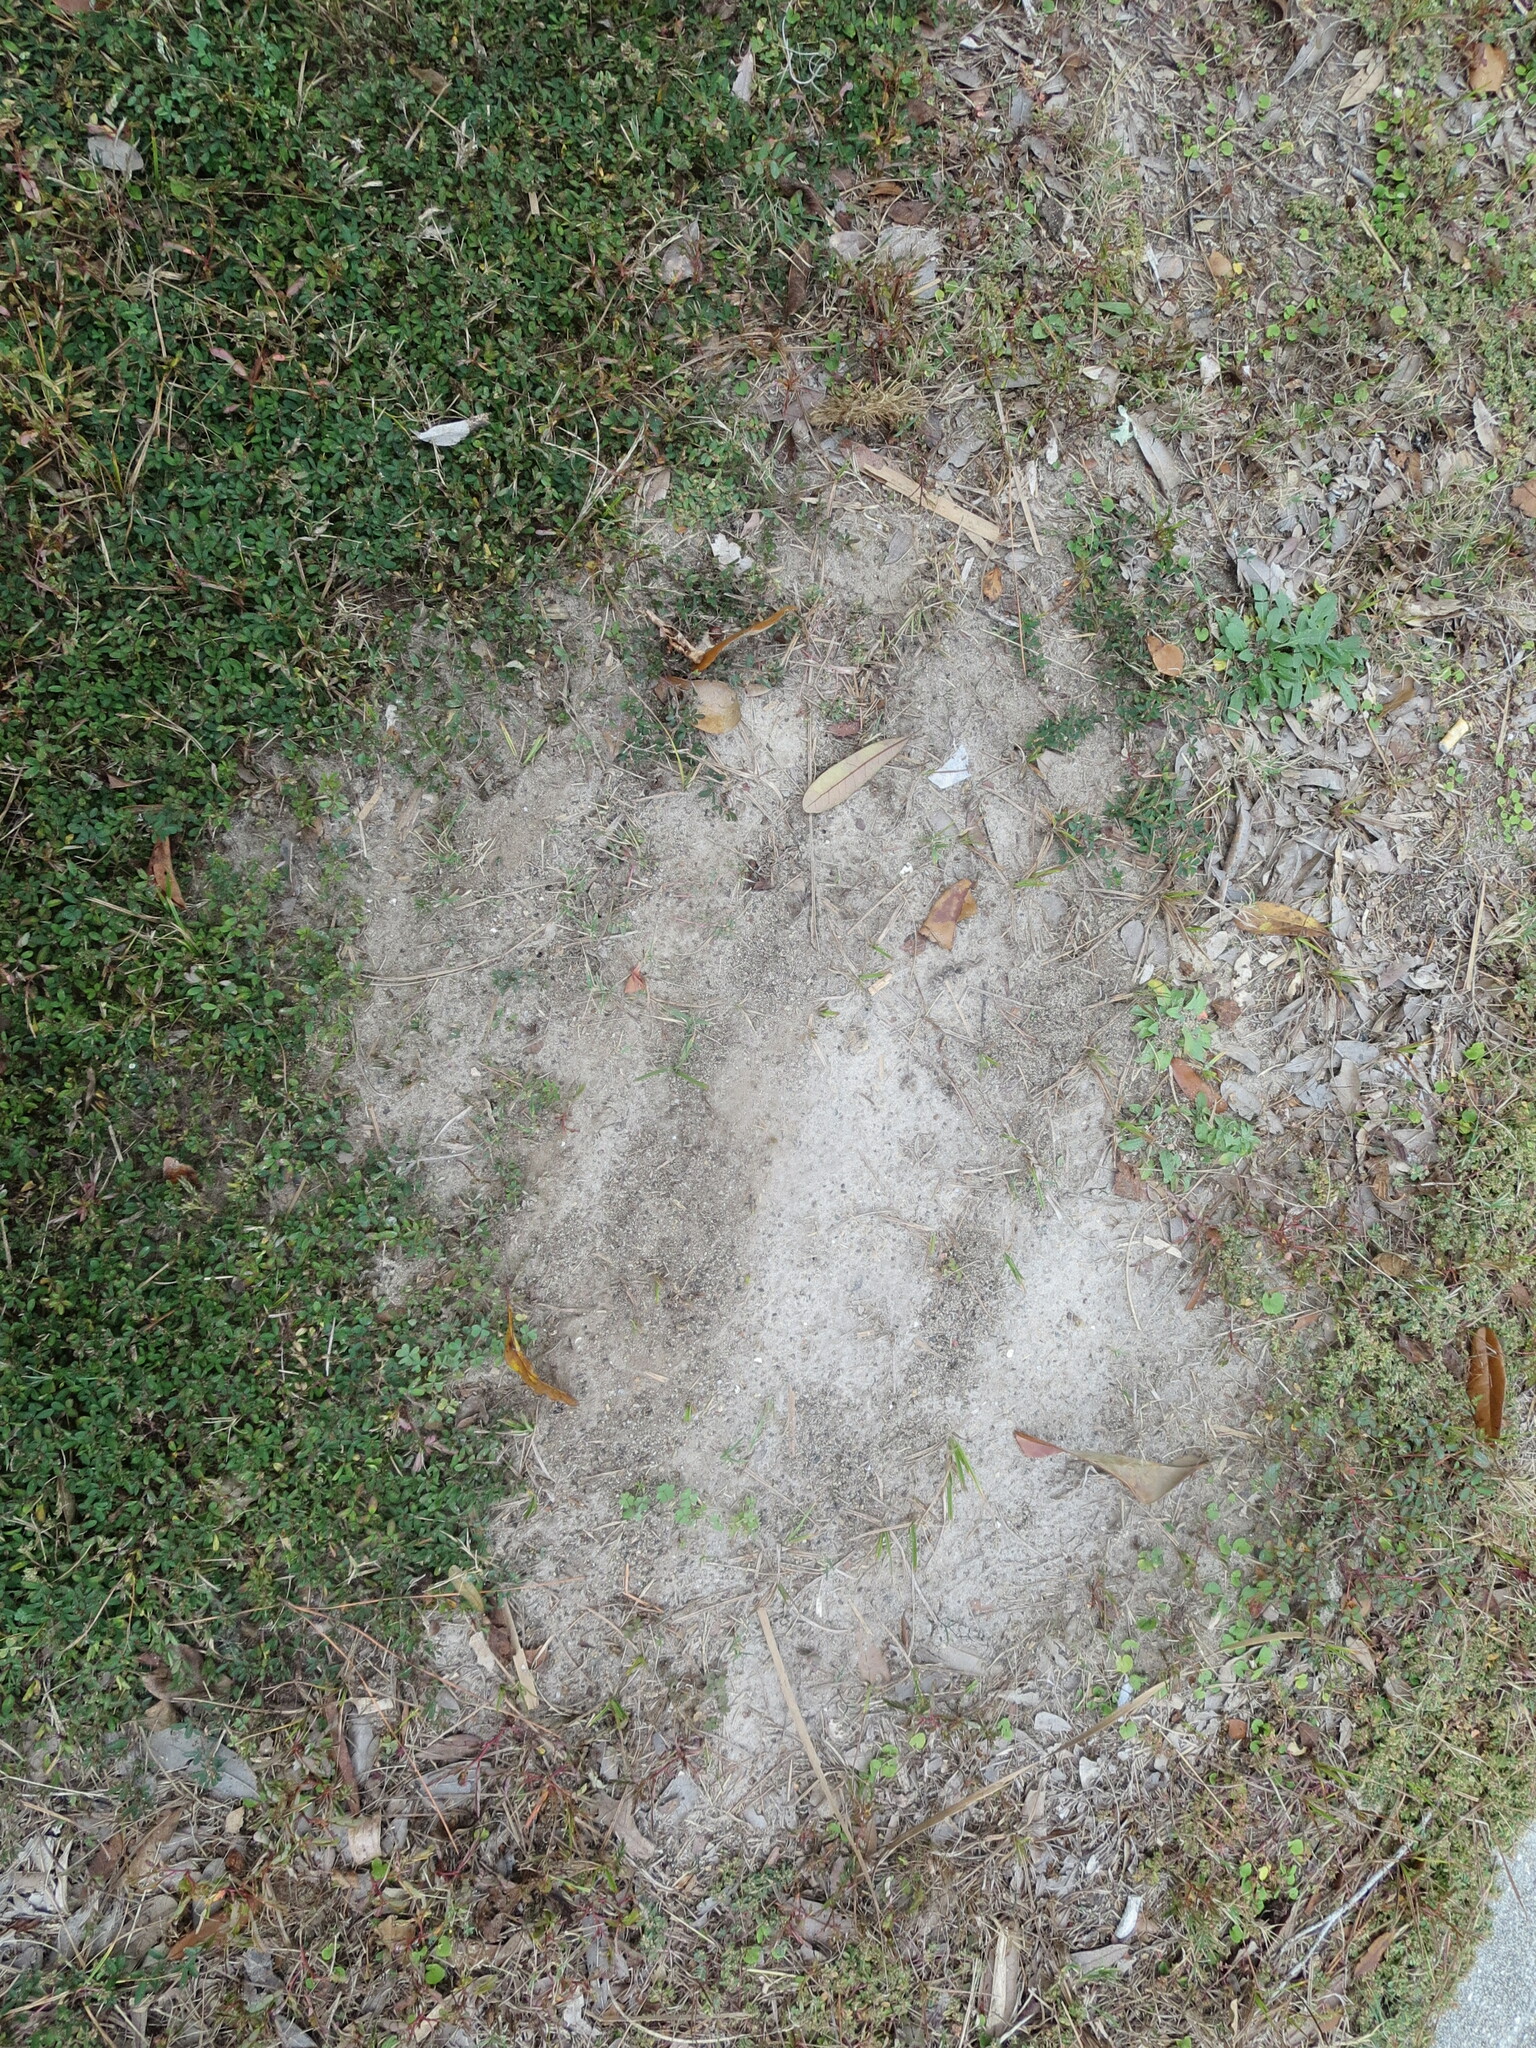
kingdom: Animalia
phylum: Arthropoda
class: Insecta
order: Hymenoptera
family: Formicidae
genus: Solenopsis
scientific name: Solenopsis invicta
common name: Red imported fire ant
